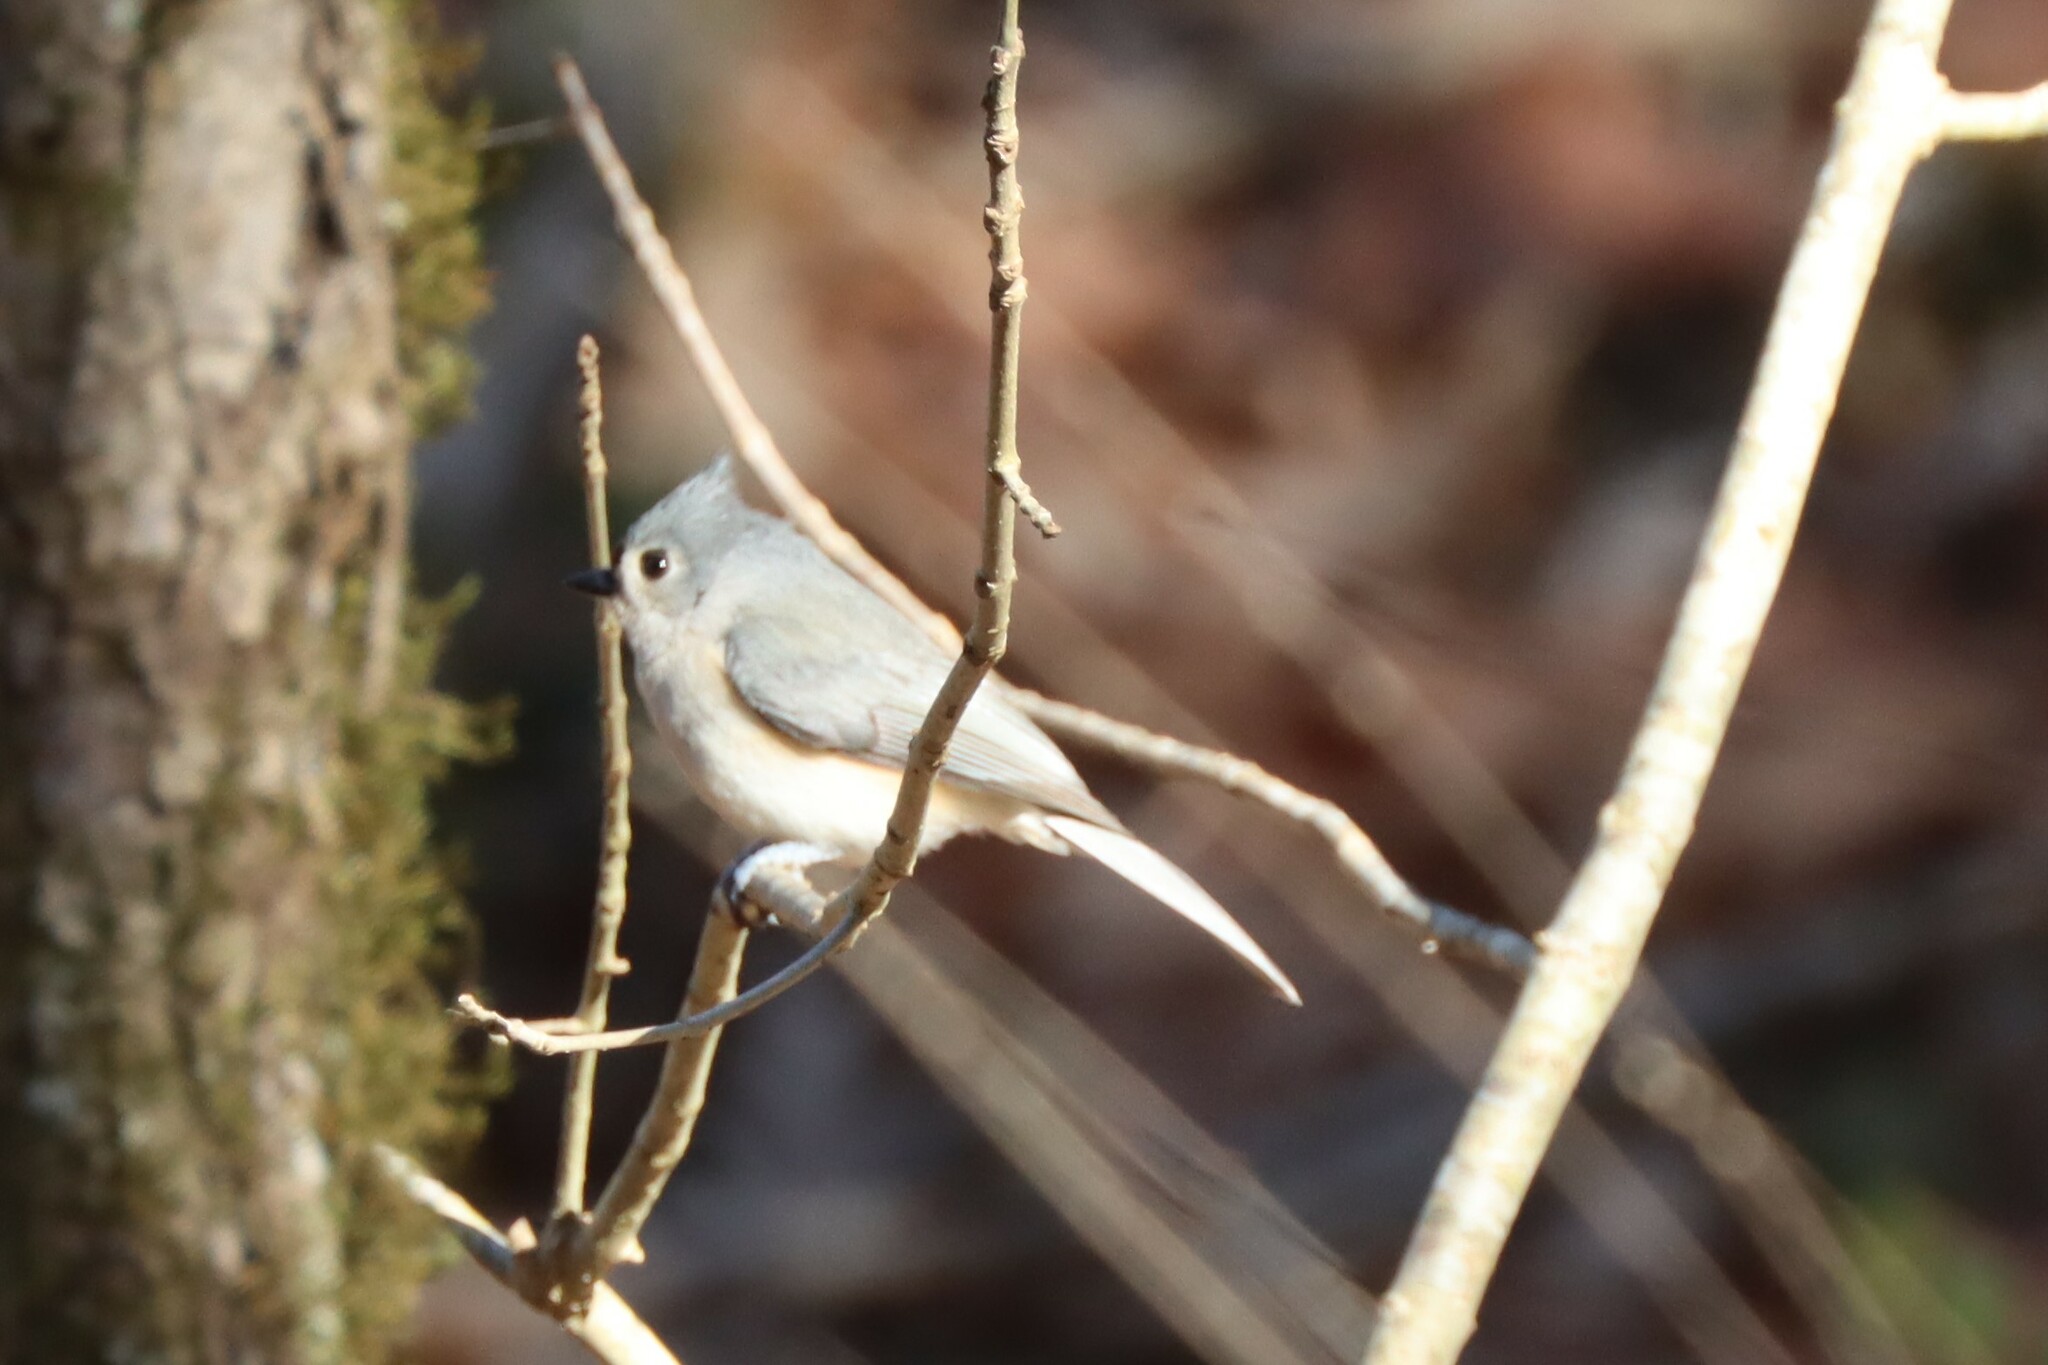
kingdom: Animalia
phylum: Chordata
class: Aves
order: Passeriformes
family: Paridae
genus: Baeolophus
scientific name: Baeolophus bicolor
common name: Tufted titmouse
